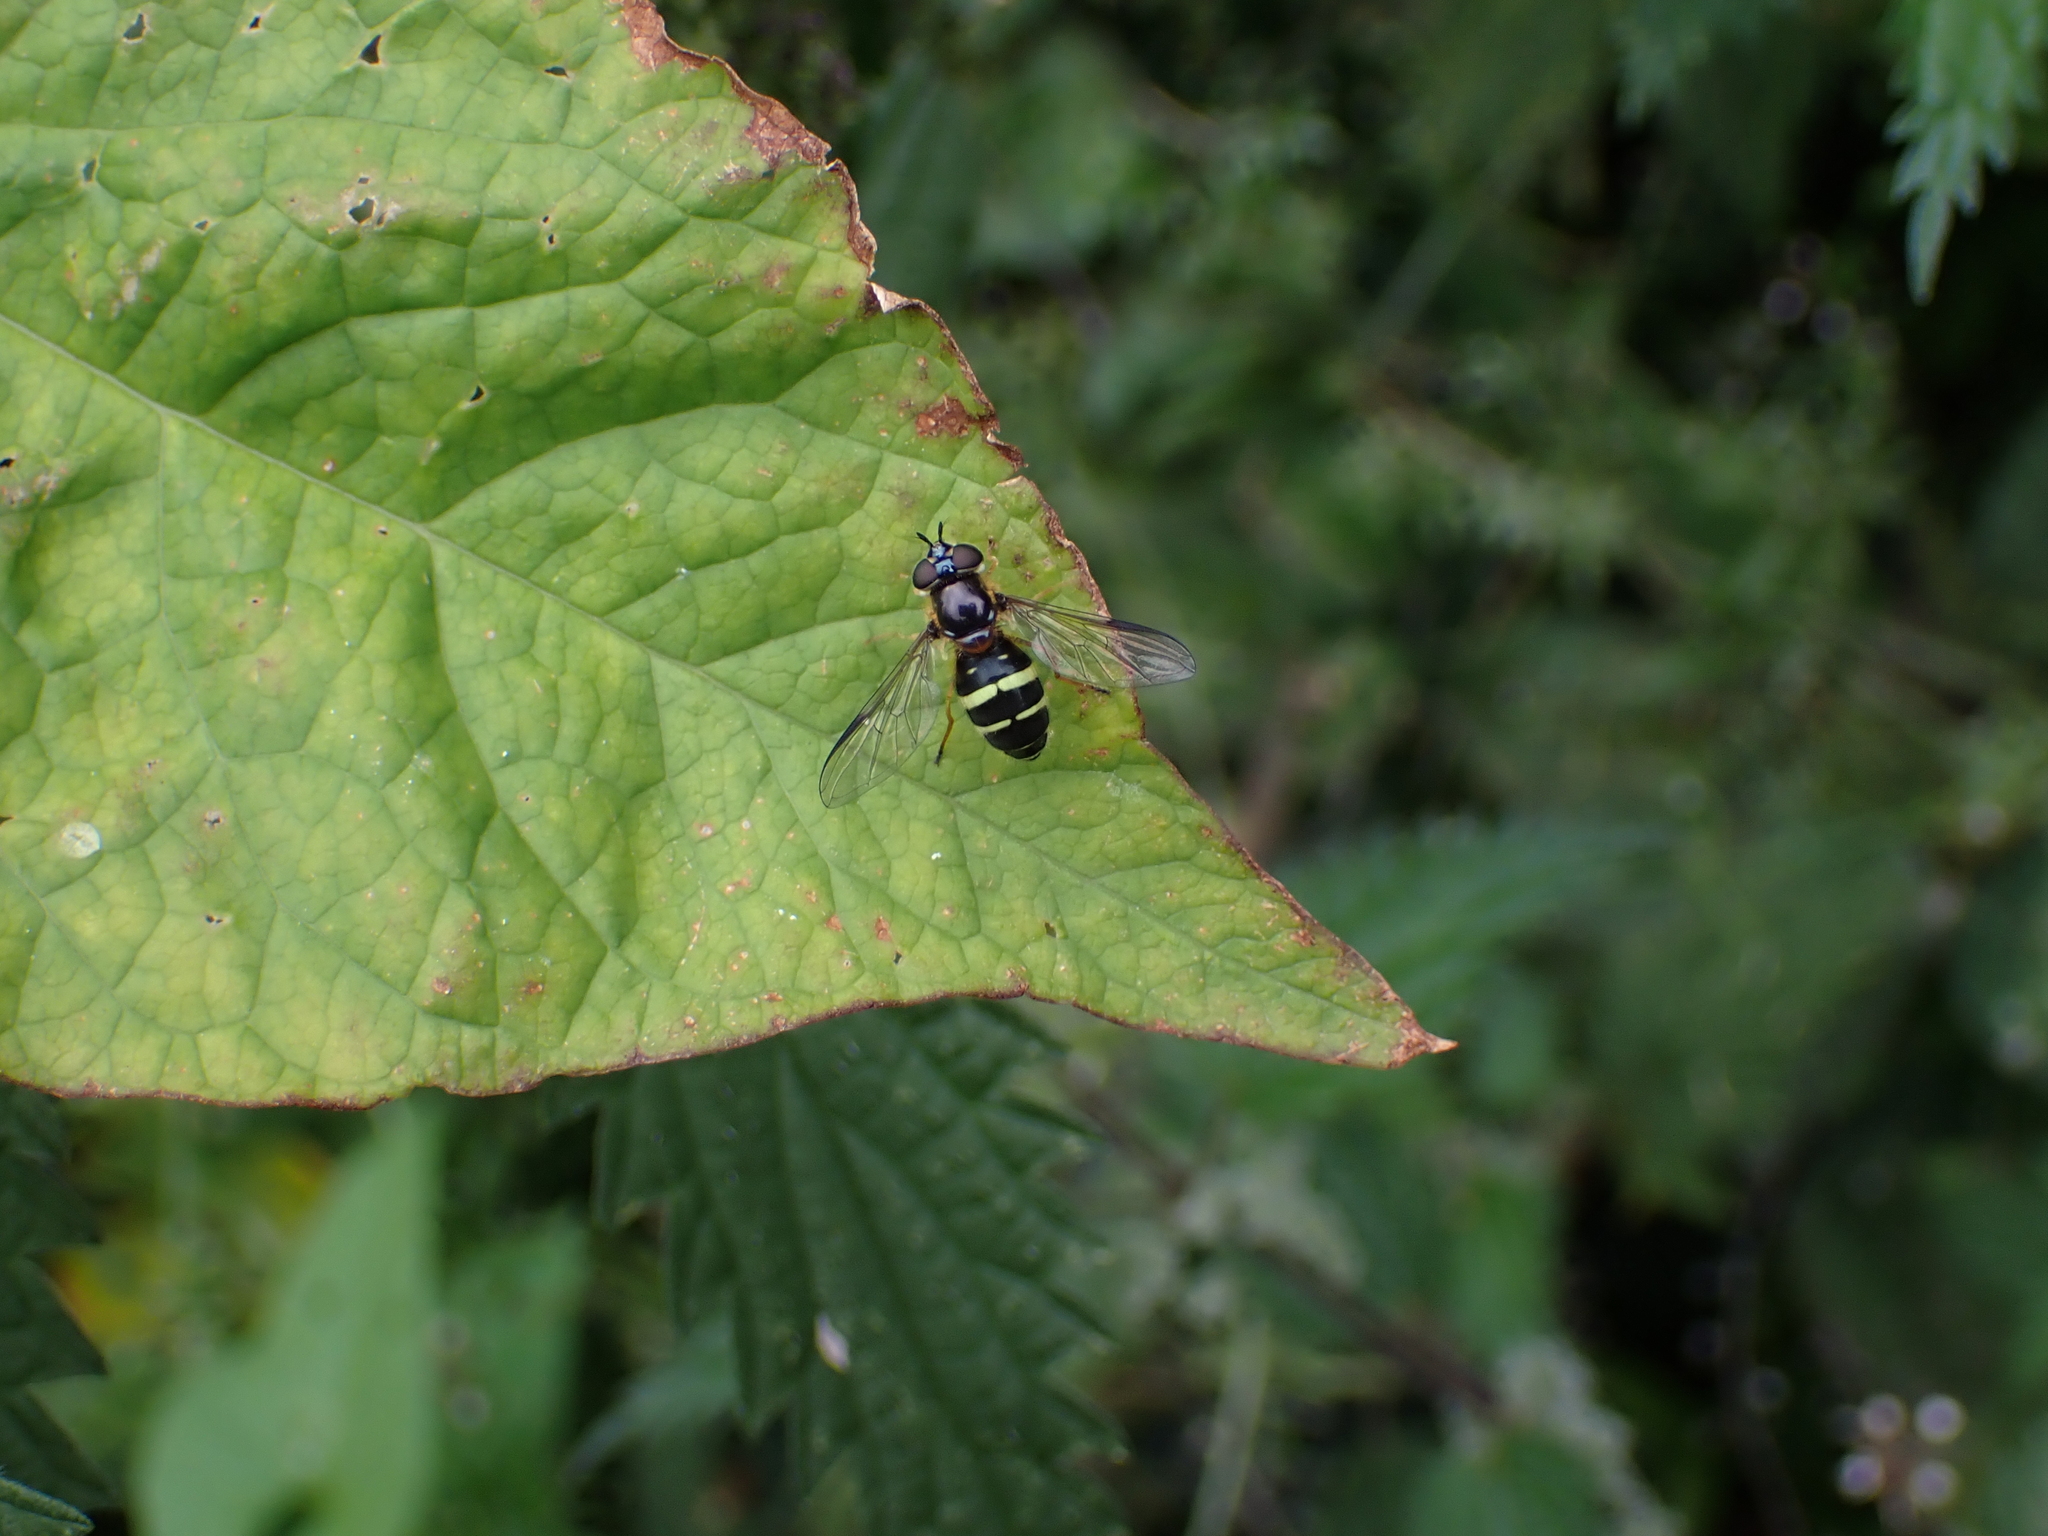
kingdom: Animalia
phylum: Arthropoda
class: Insecta
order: Diptera
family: Syrphidae
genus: Dasysyrphus
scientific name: Dasysyrphus tricinctus
